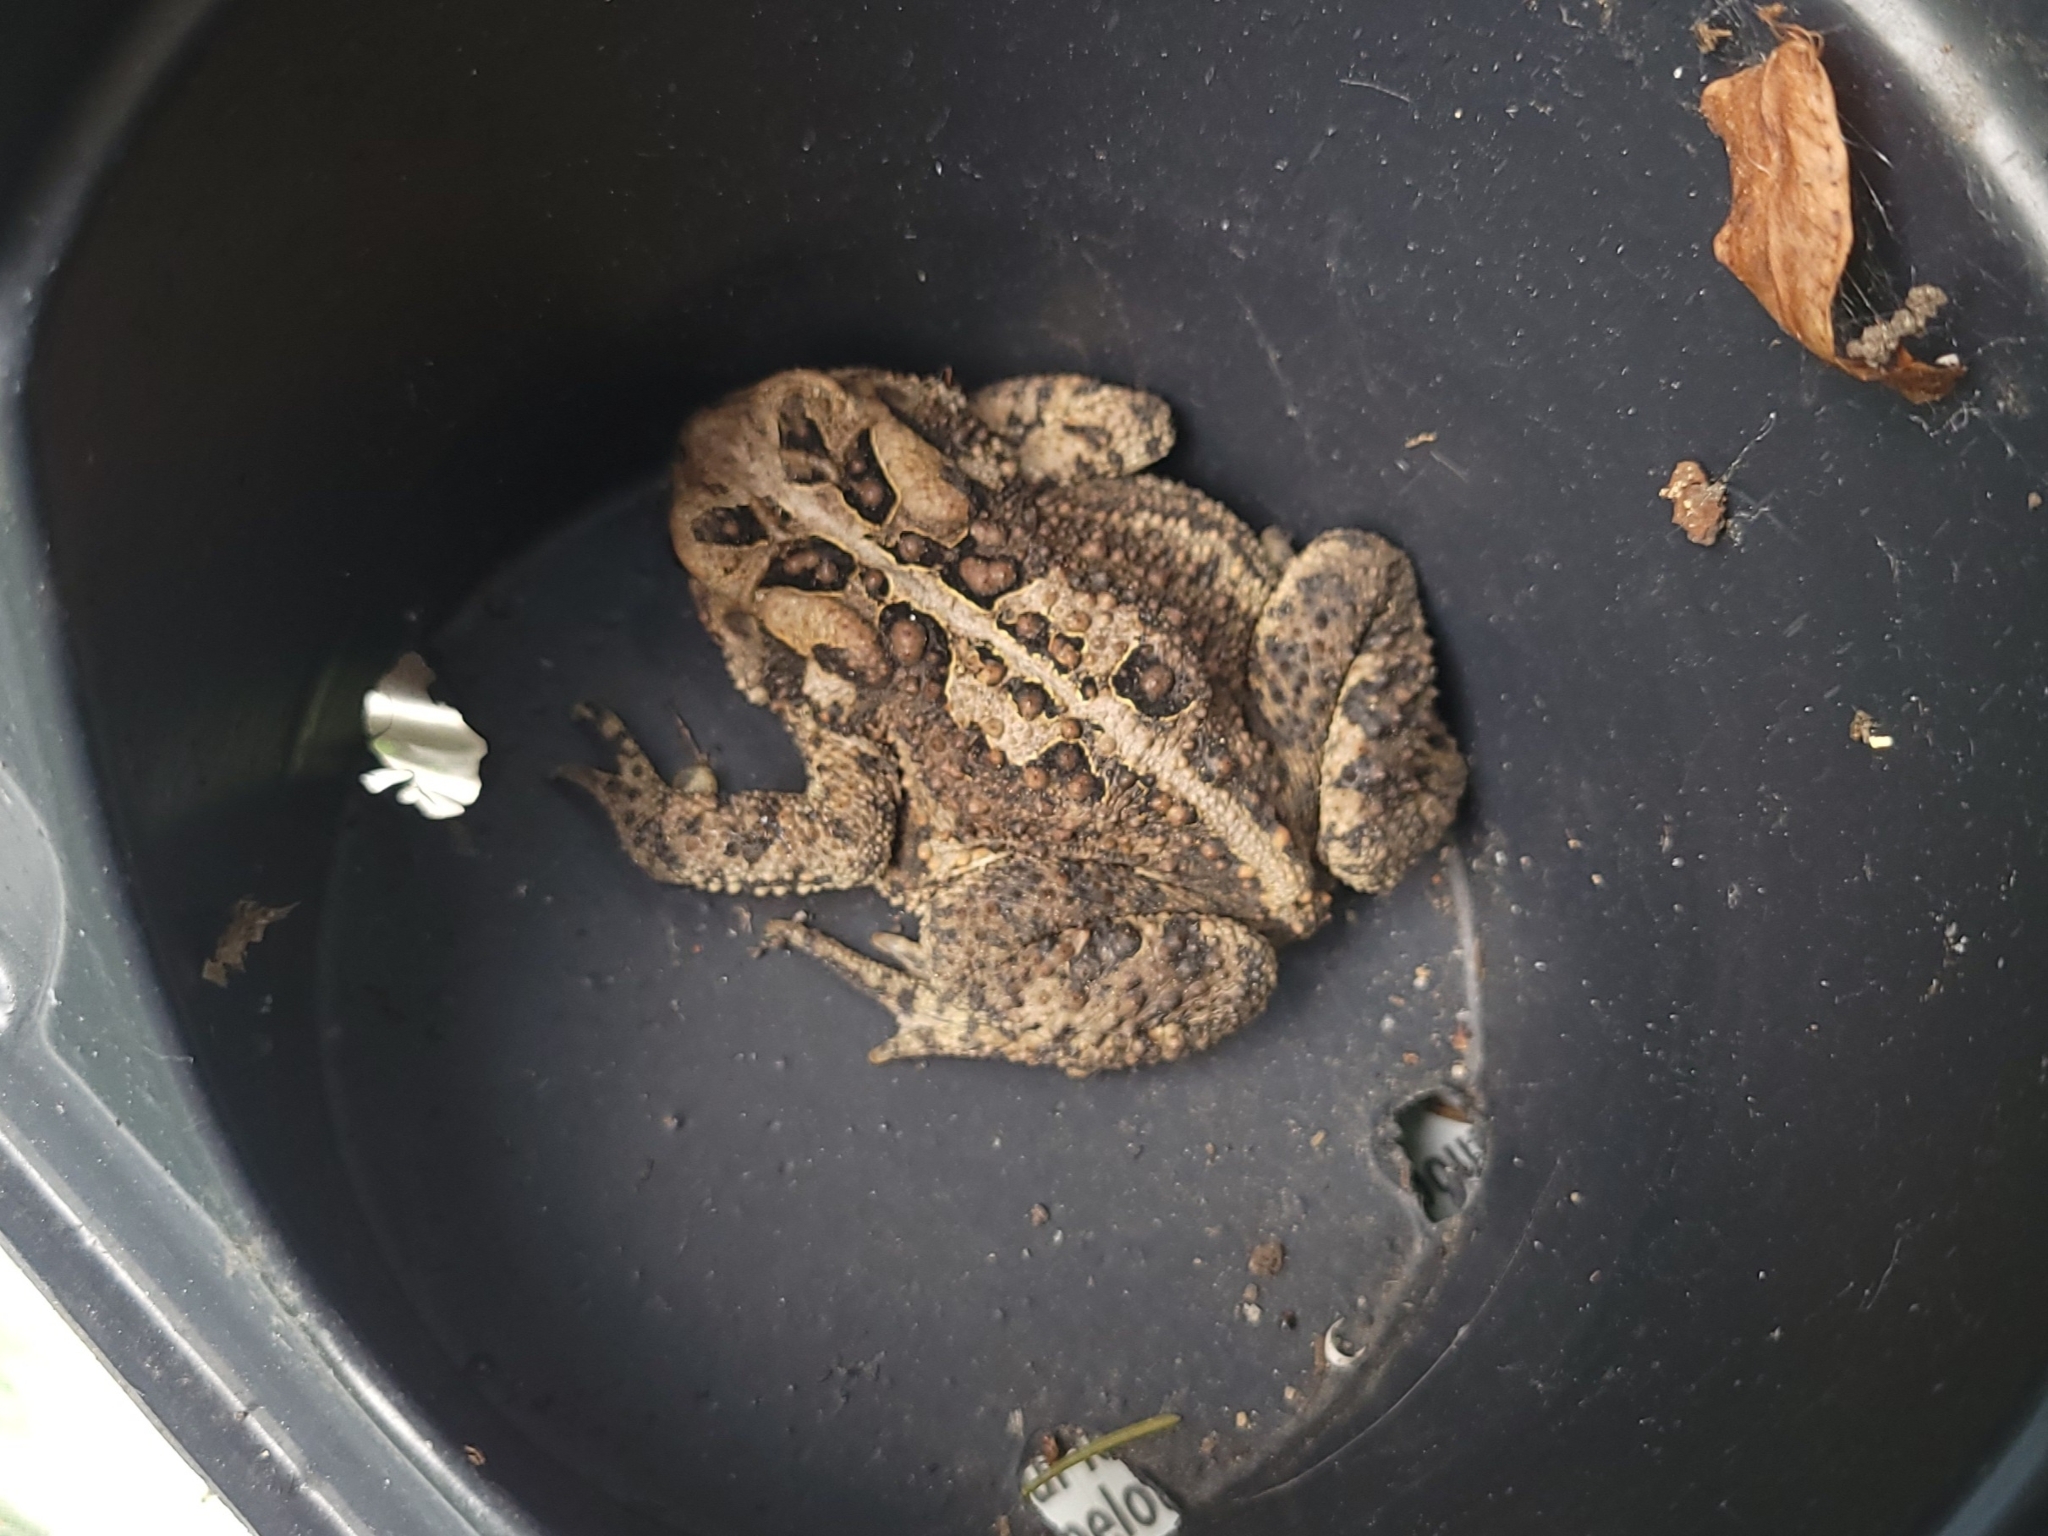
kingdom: Animalia
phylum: Chordata
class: Amphibia
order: Anura
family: Bufonidae
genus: Anaxyrus
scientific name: Anaxyrus americanus
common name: American toad
